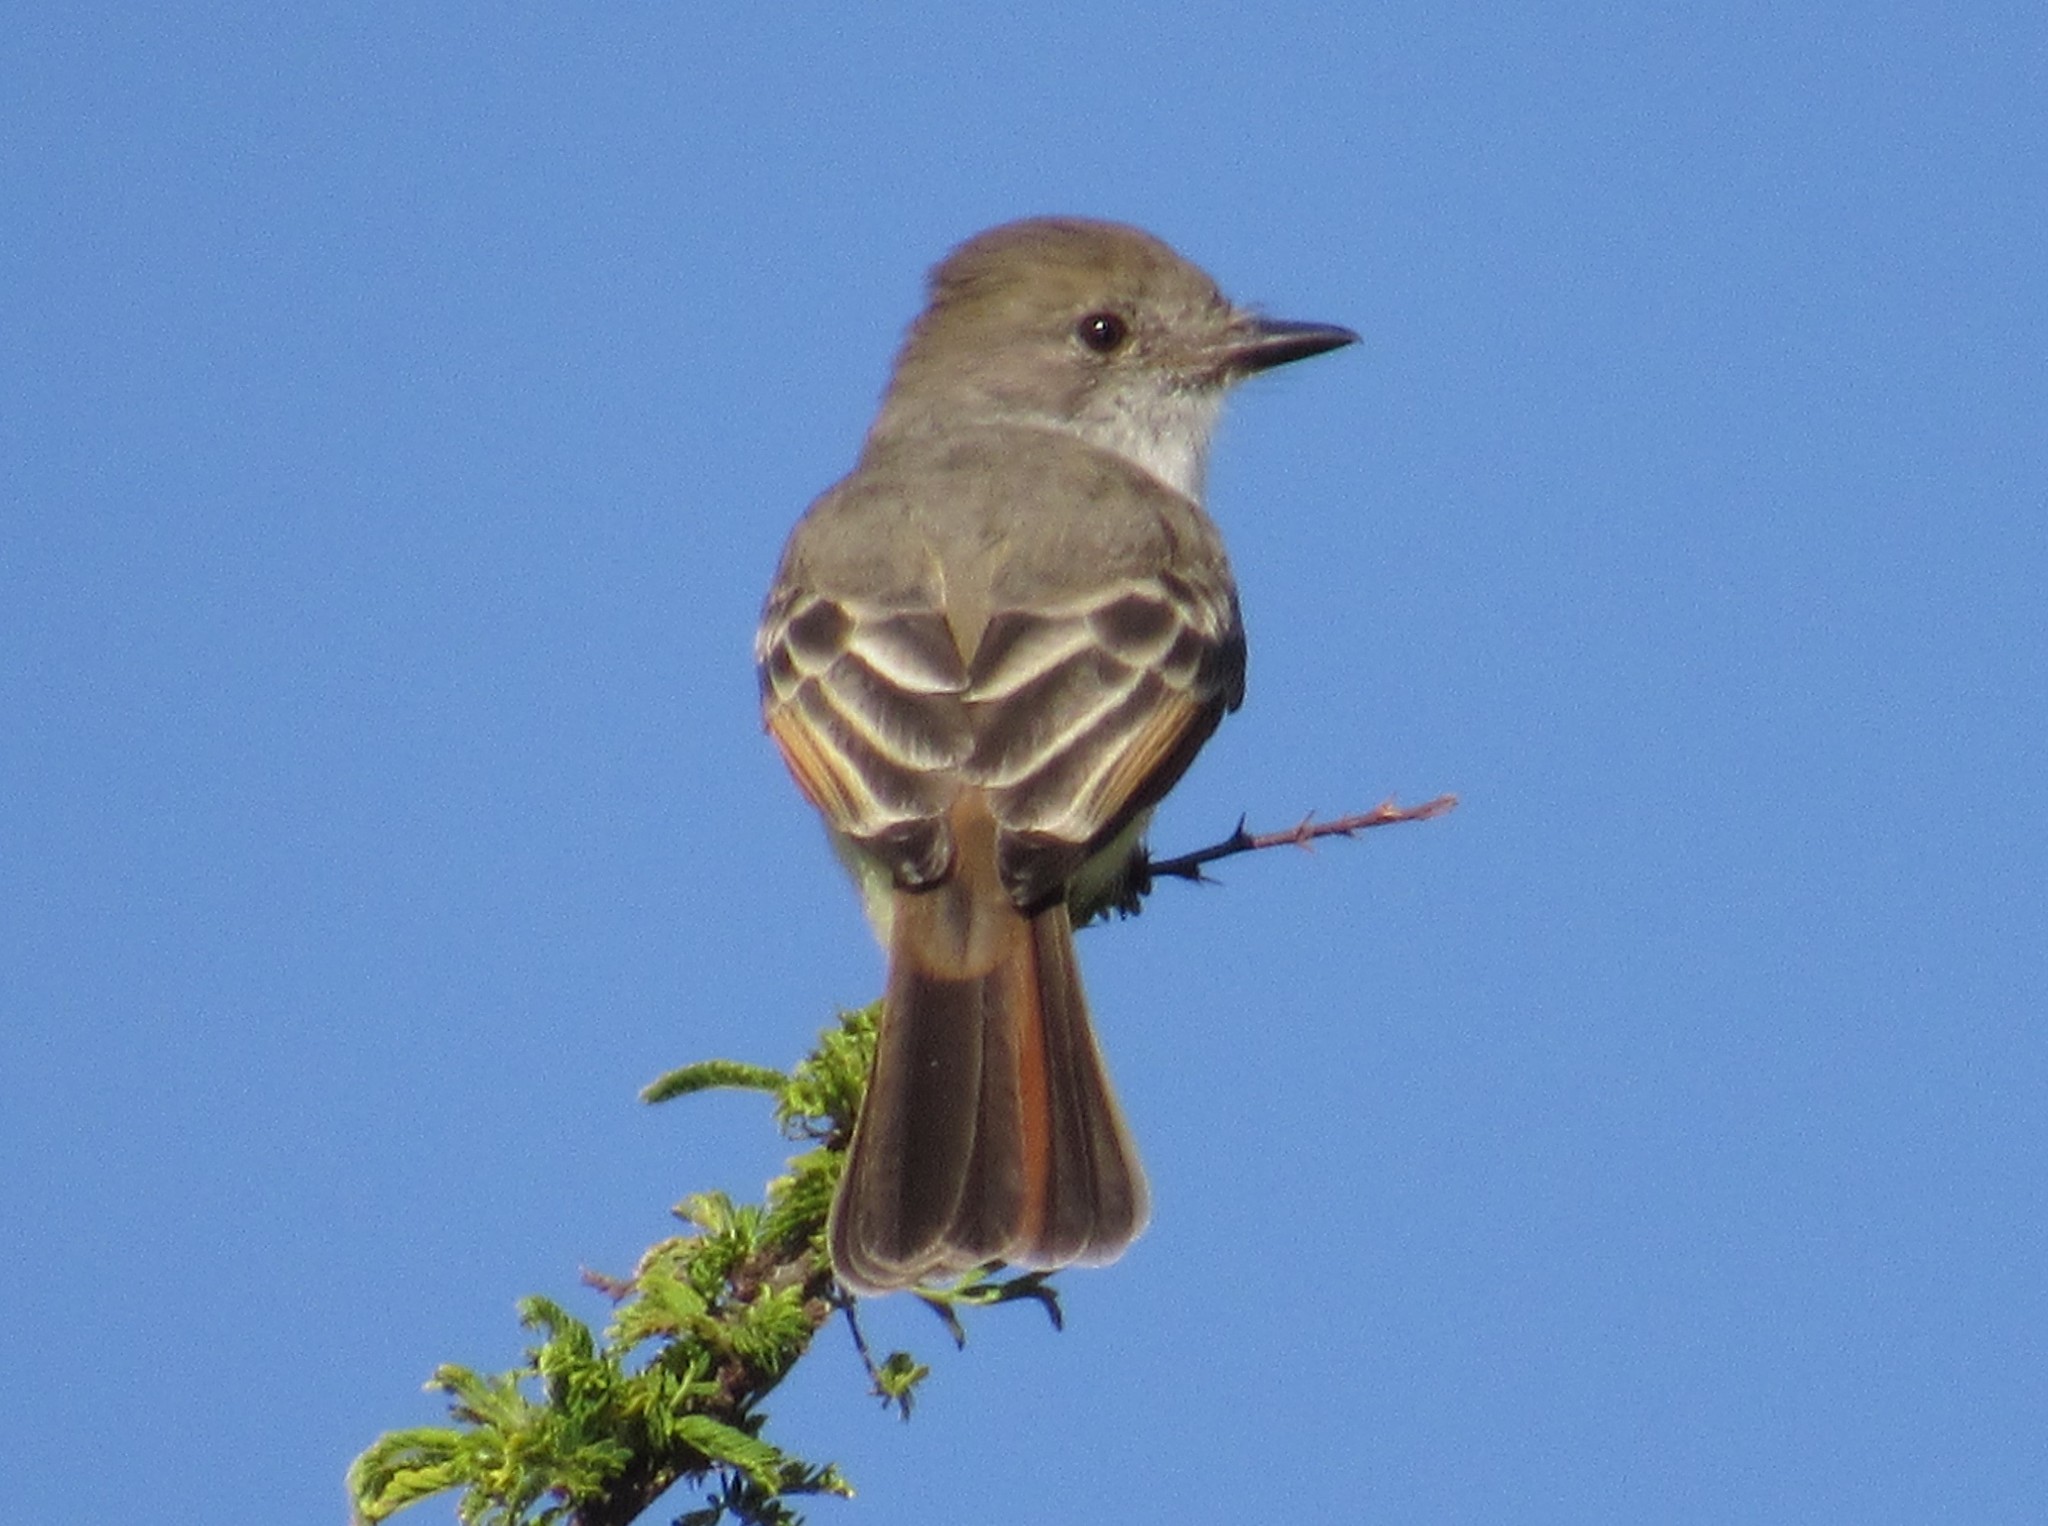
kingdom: Animalia
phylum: Chordata
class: Aves
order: Passeriformes
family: Tyrannidae
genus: Myiarchus
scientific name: Myiarchus cinerascens
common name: Ash-throated flycatcher
